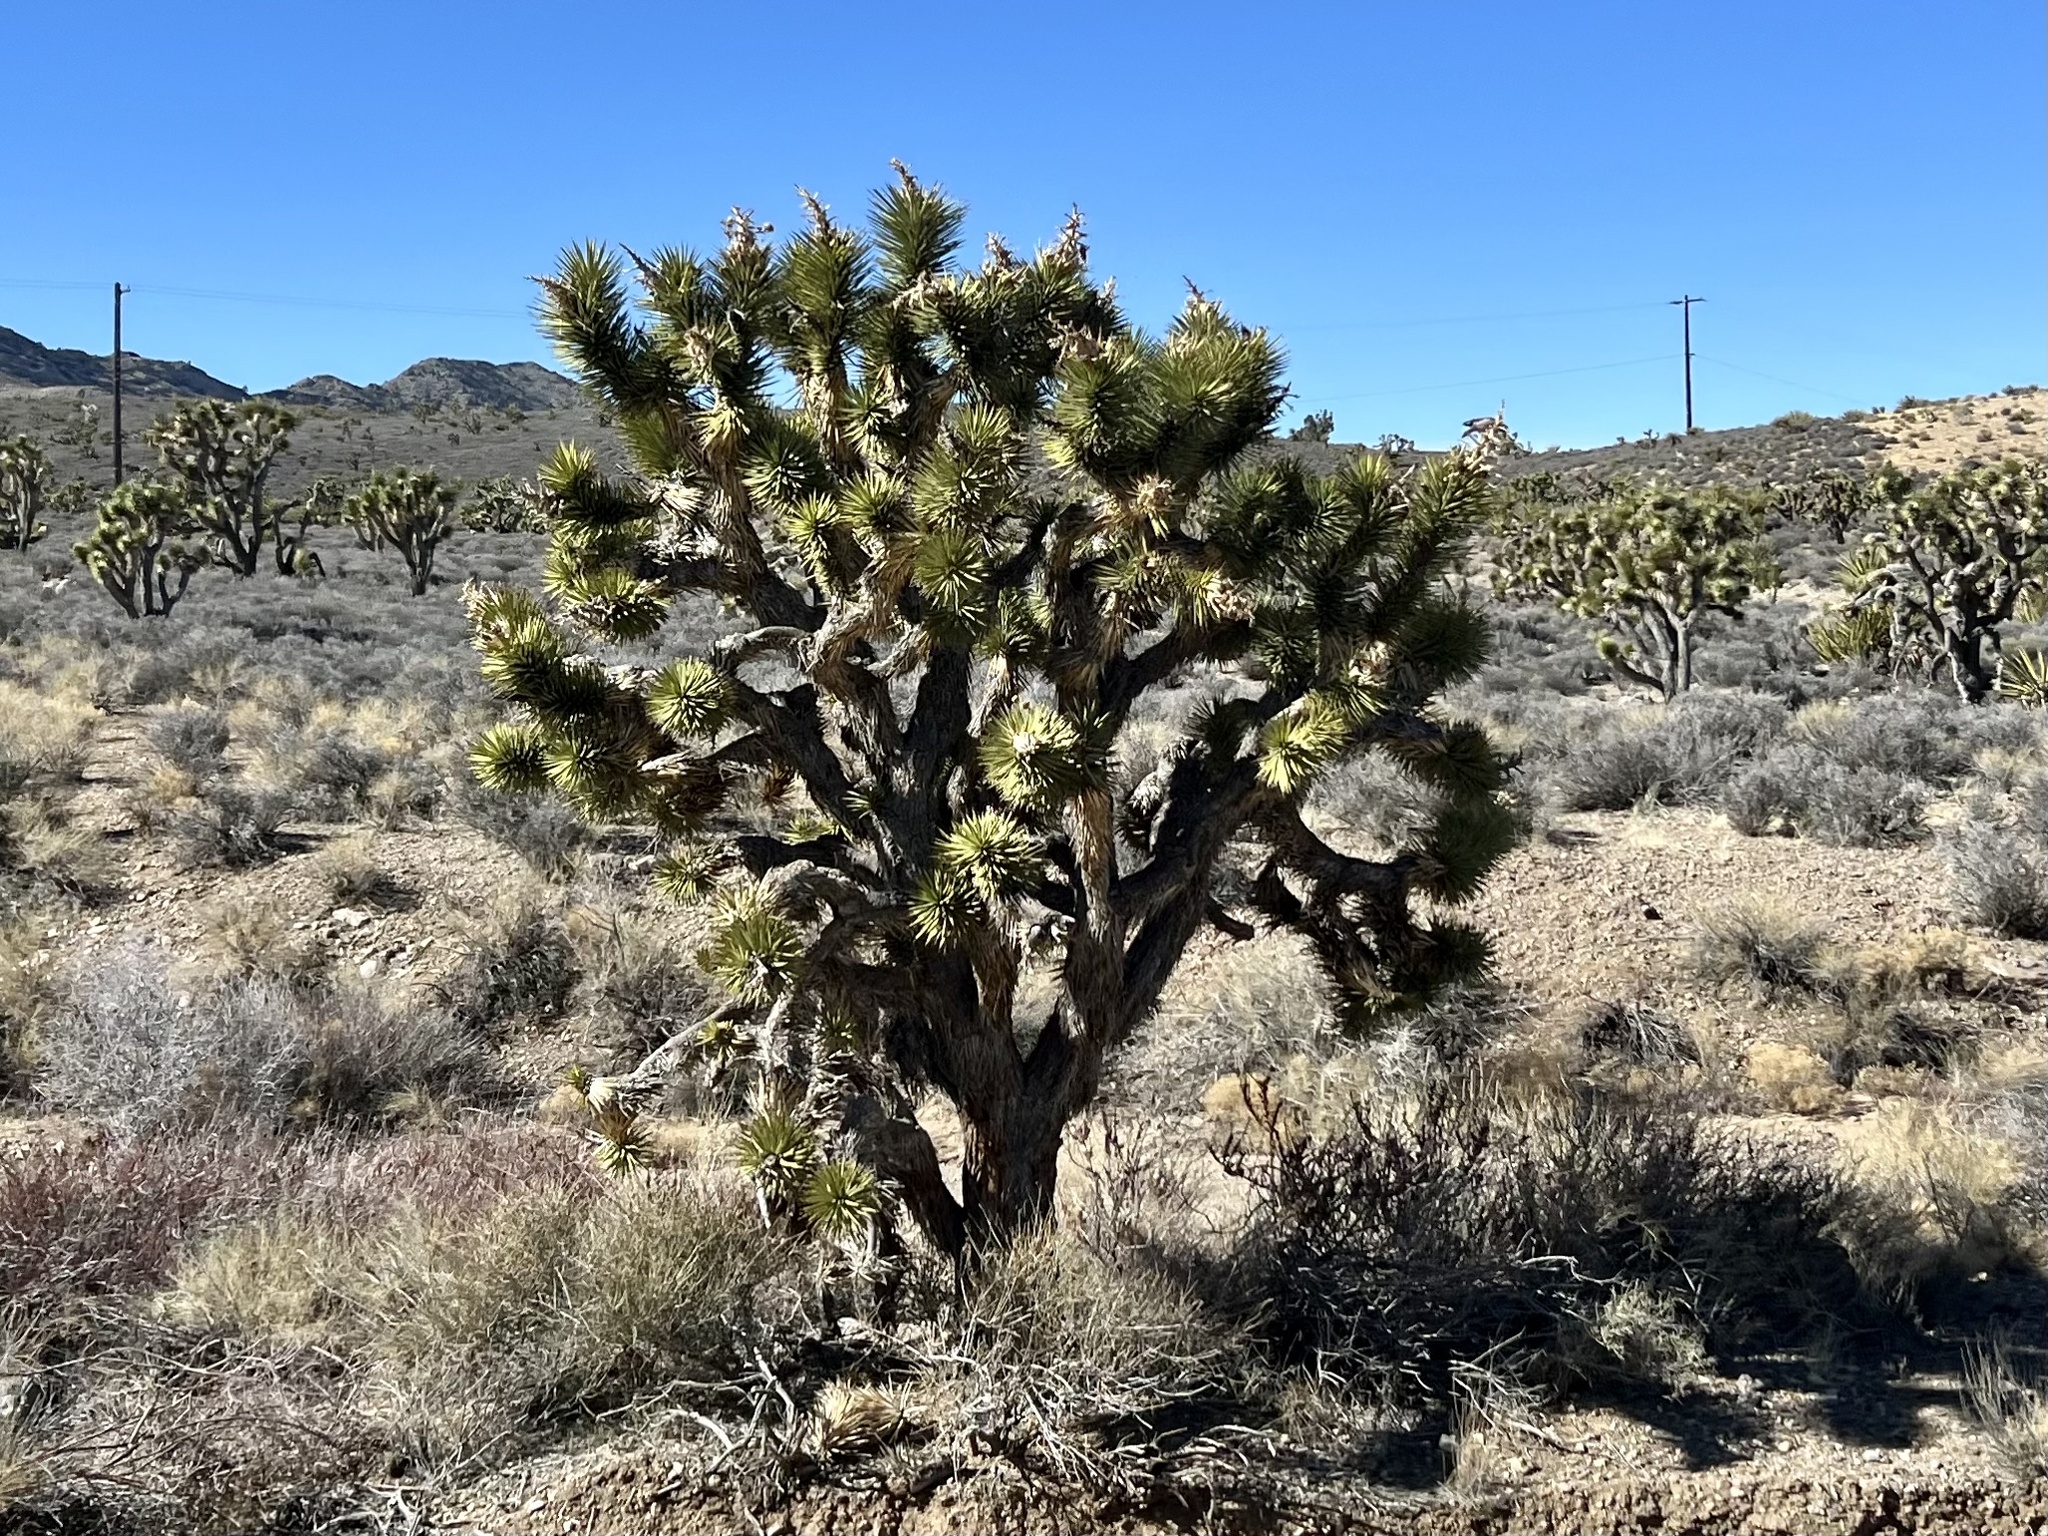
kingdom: Plantae
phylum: Tracheophyta
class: Liliopsida
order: Asparagales
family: Asparagaceae
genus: Yucca
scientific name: Yucca brevifolia
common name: Joshua tree
